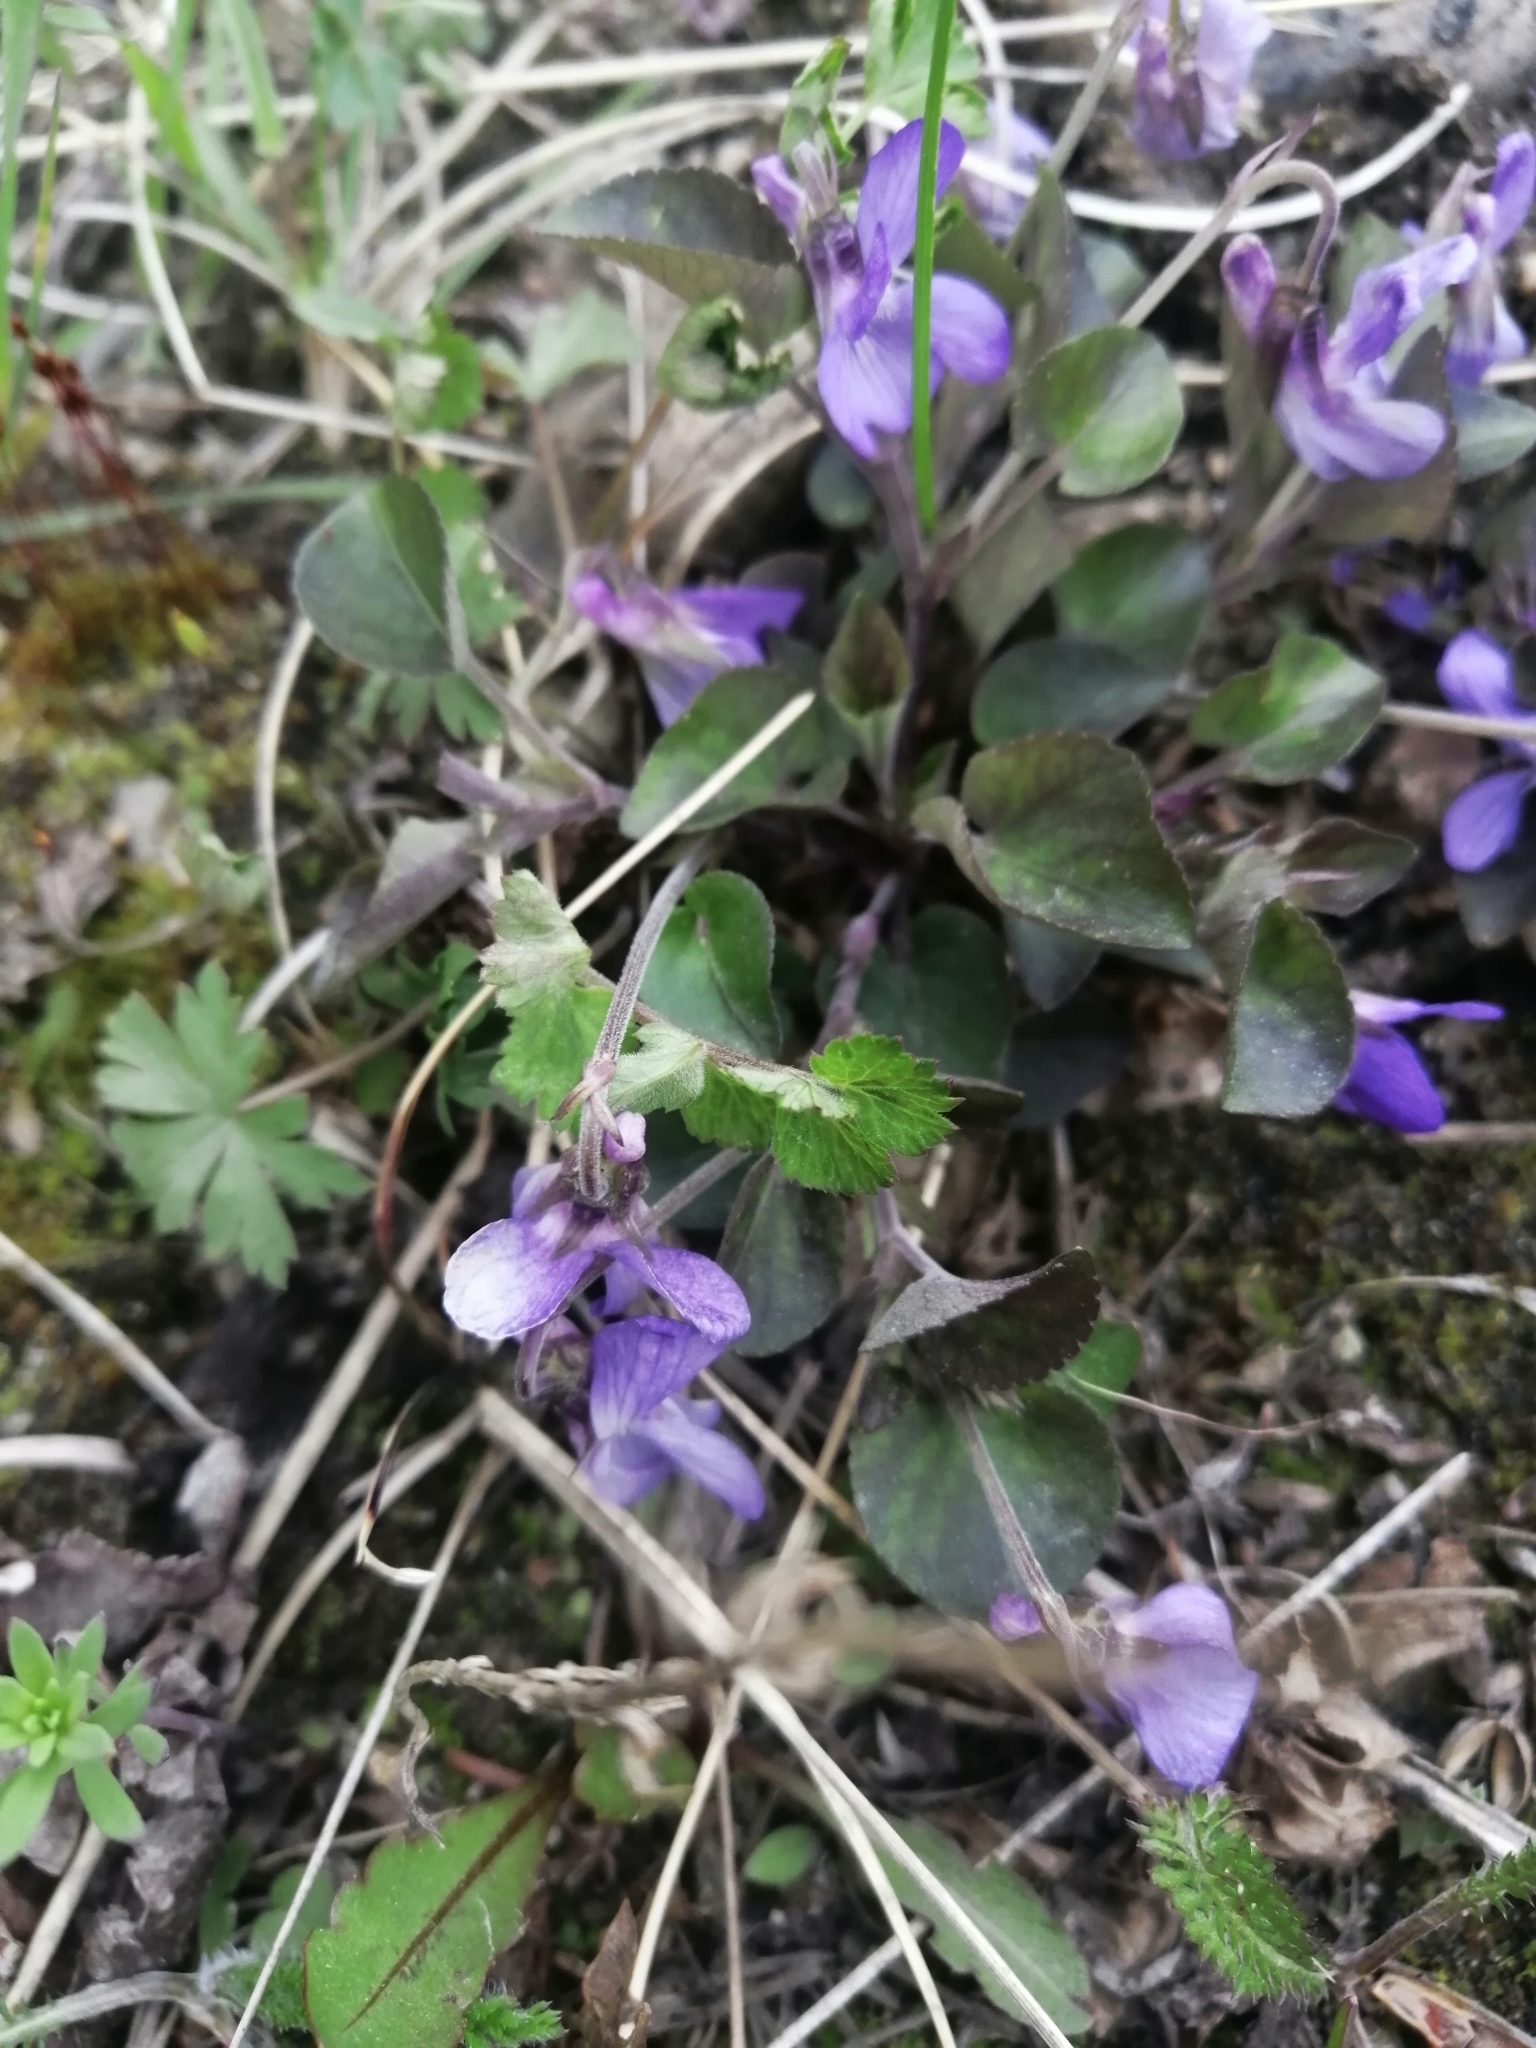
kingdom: Plantae
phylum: Tracheophyta
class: Magnoliopsida
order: Malpighiales
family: Violaceae
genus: Viola
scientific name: Viola rupestris
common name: Teesdale violet
